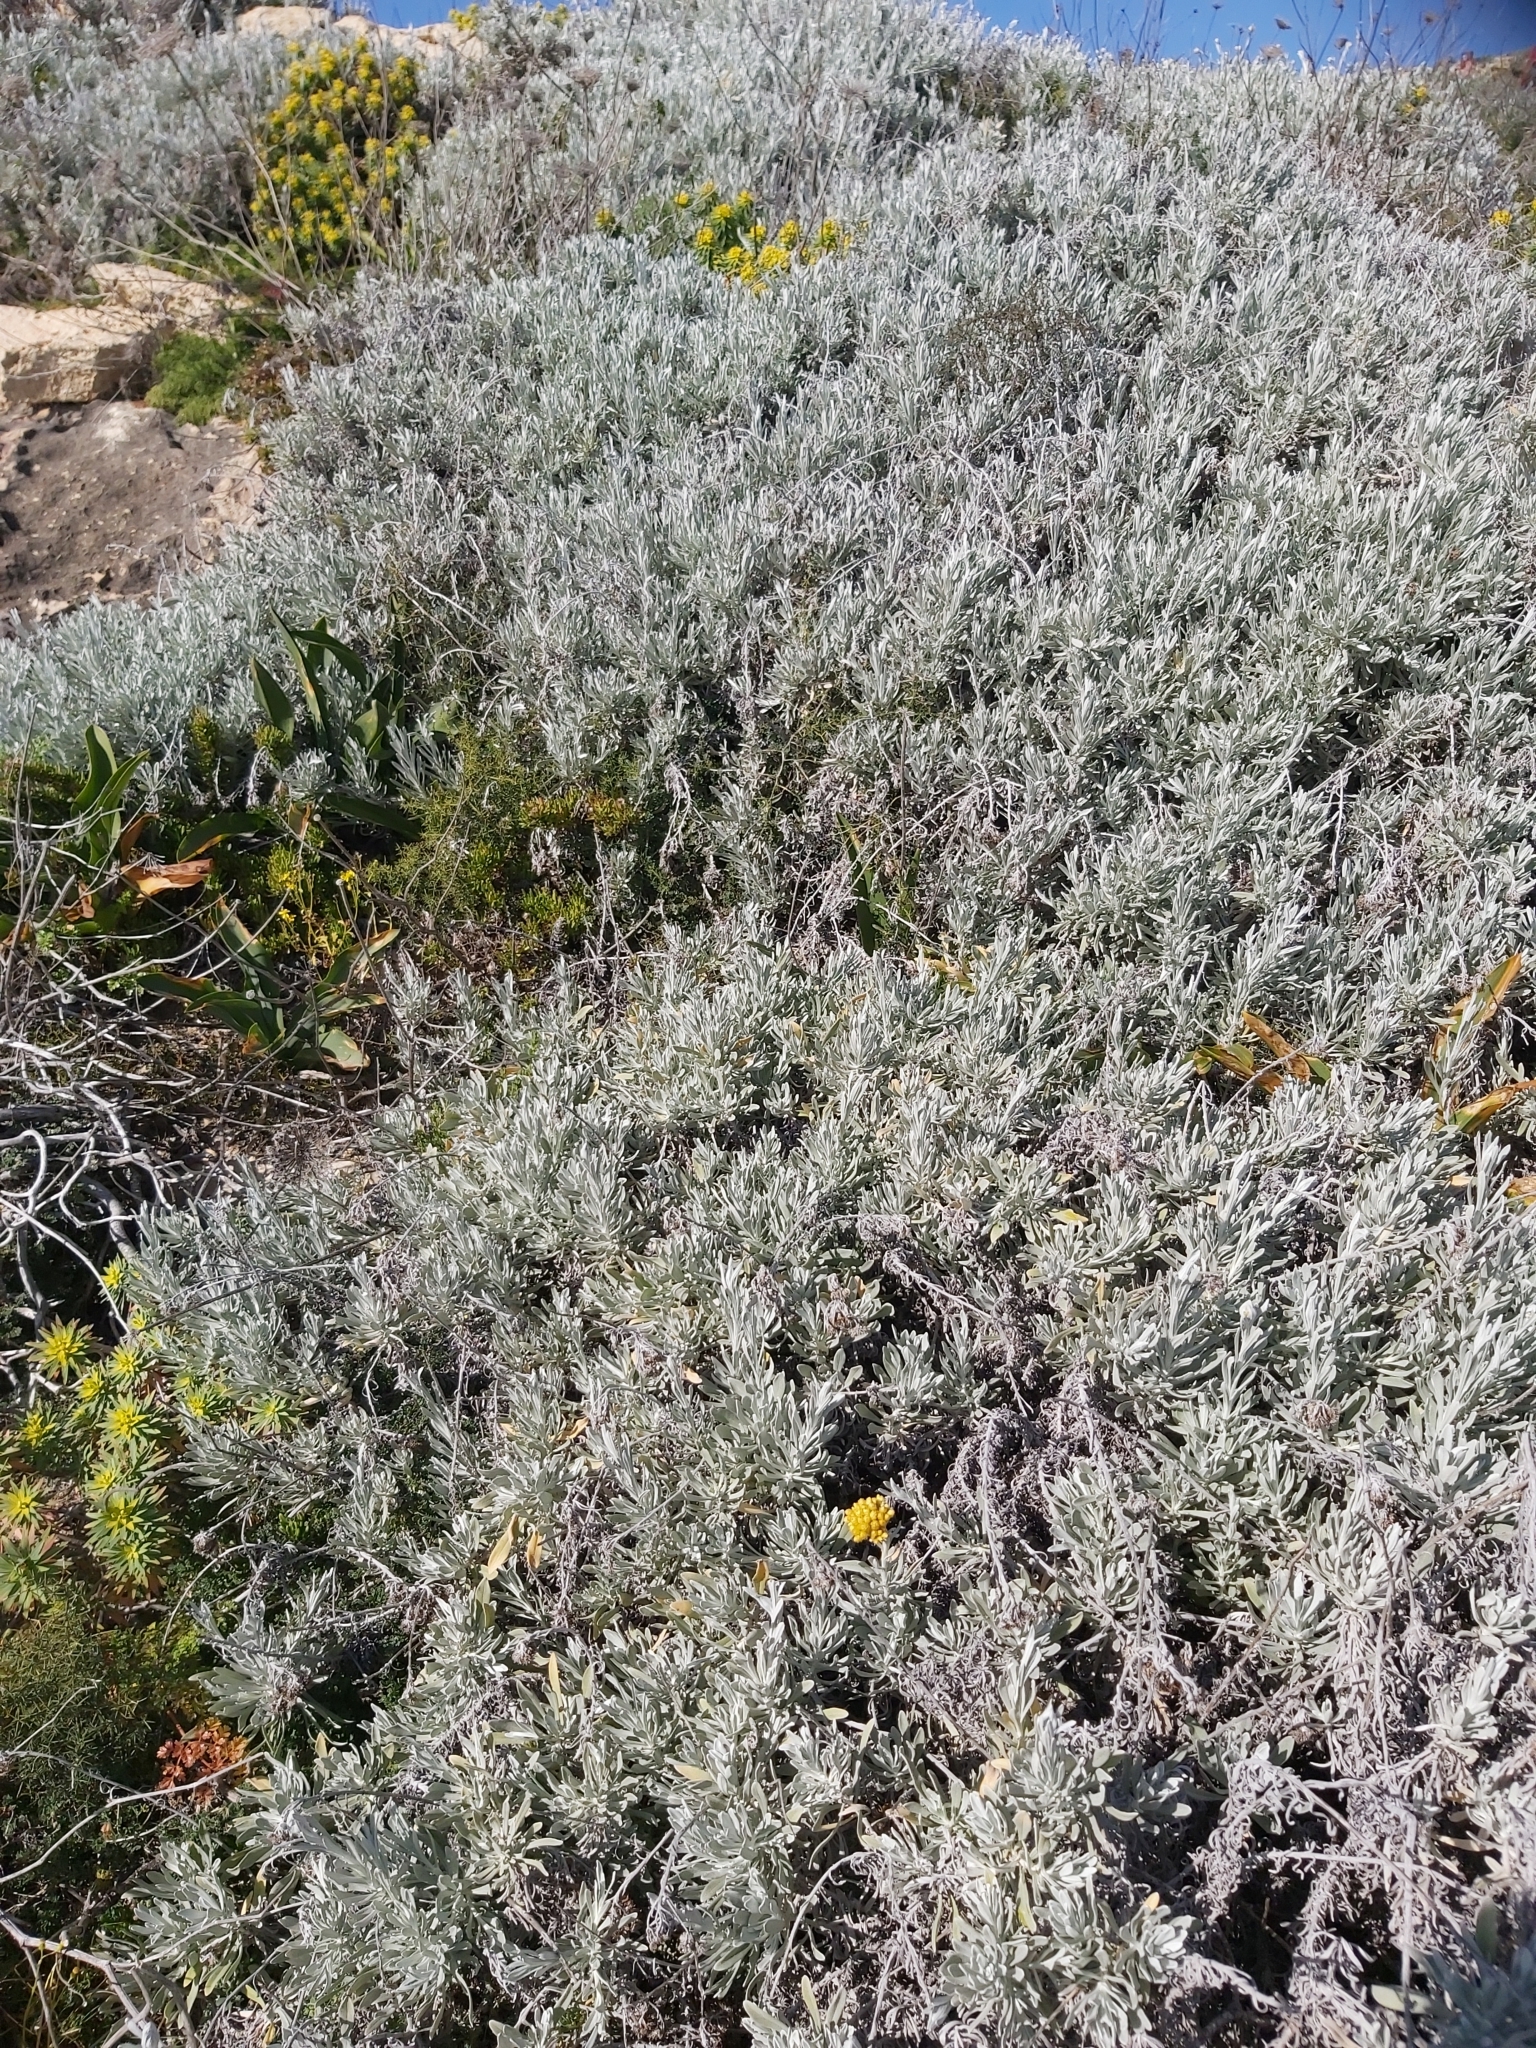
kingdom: Plantae
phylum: Tracheophyta
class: Magnoliopsida
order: Asterales
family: Asteraceae
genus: Helichrysum
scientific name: Helichrysum melitense
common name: Maltese everlasting
